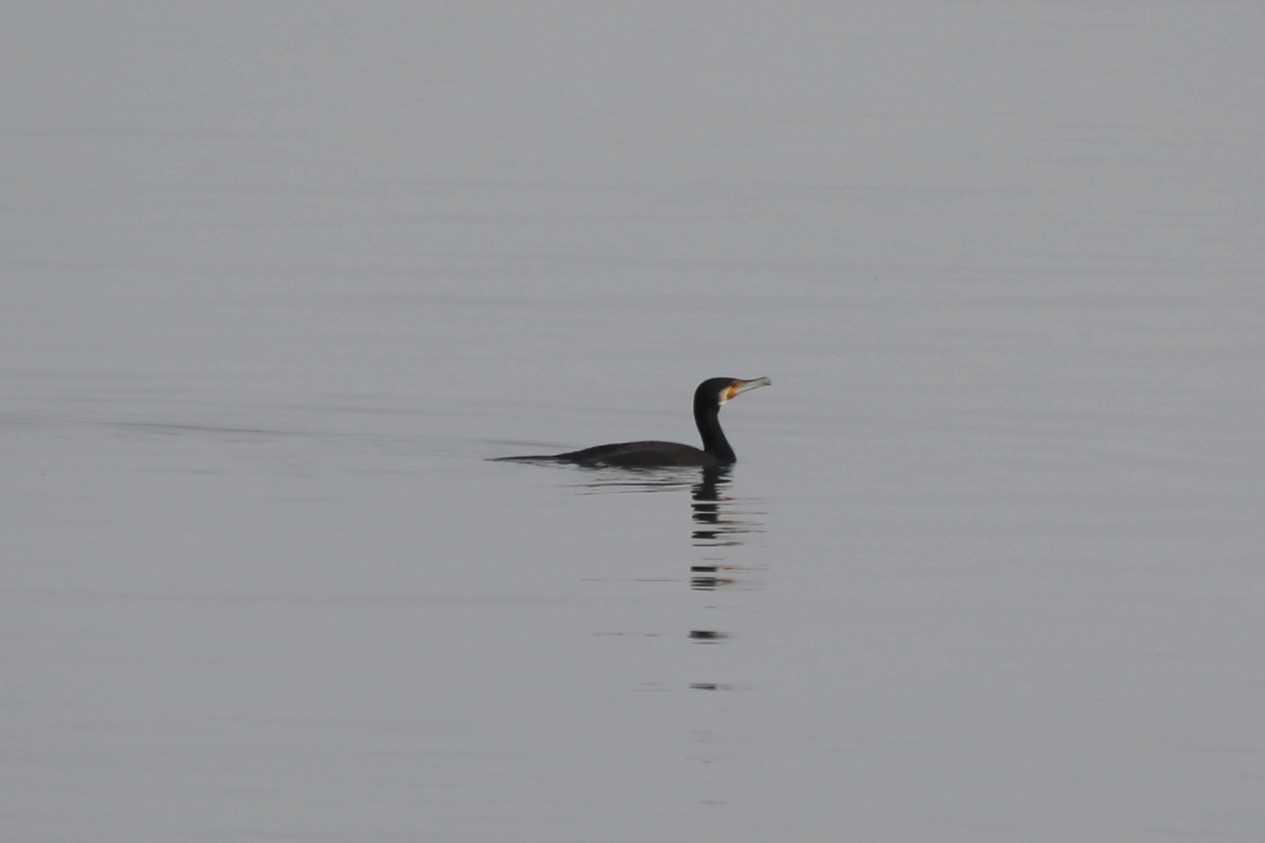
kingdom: Animalia
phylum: Chordata
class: Aves
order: Suliformes
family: Phalacrocoracidae
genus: Phalacrocorax
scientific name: Phalacrocorax carbo
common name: Great cormorant
